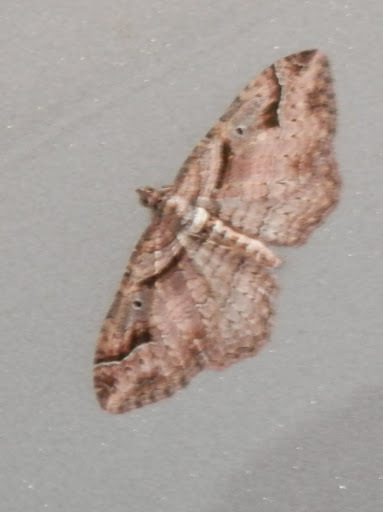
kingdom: Animalia
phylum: Arthropoda
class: Insecta
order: Lepidoptera
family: Geometridae
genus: Costaconvexa
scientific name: Costaconvexa centrostrigaria
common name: Bent-line carpet
